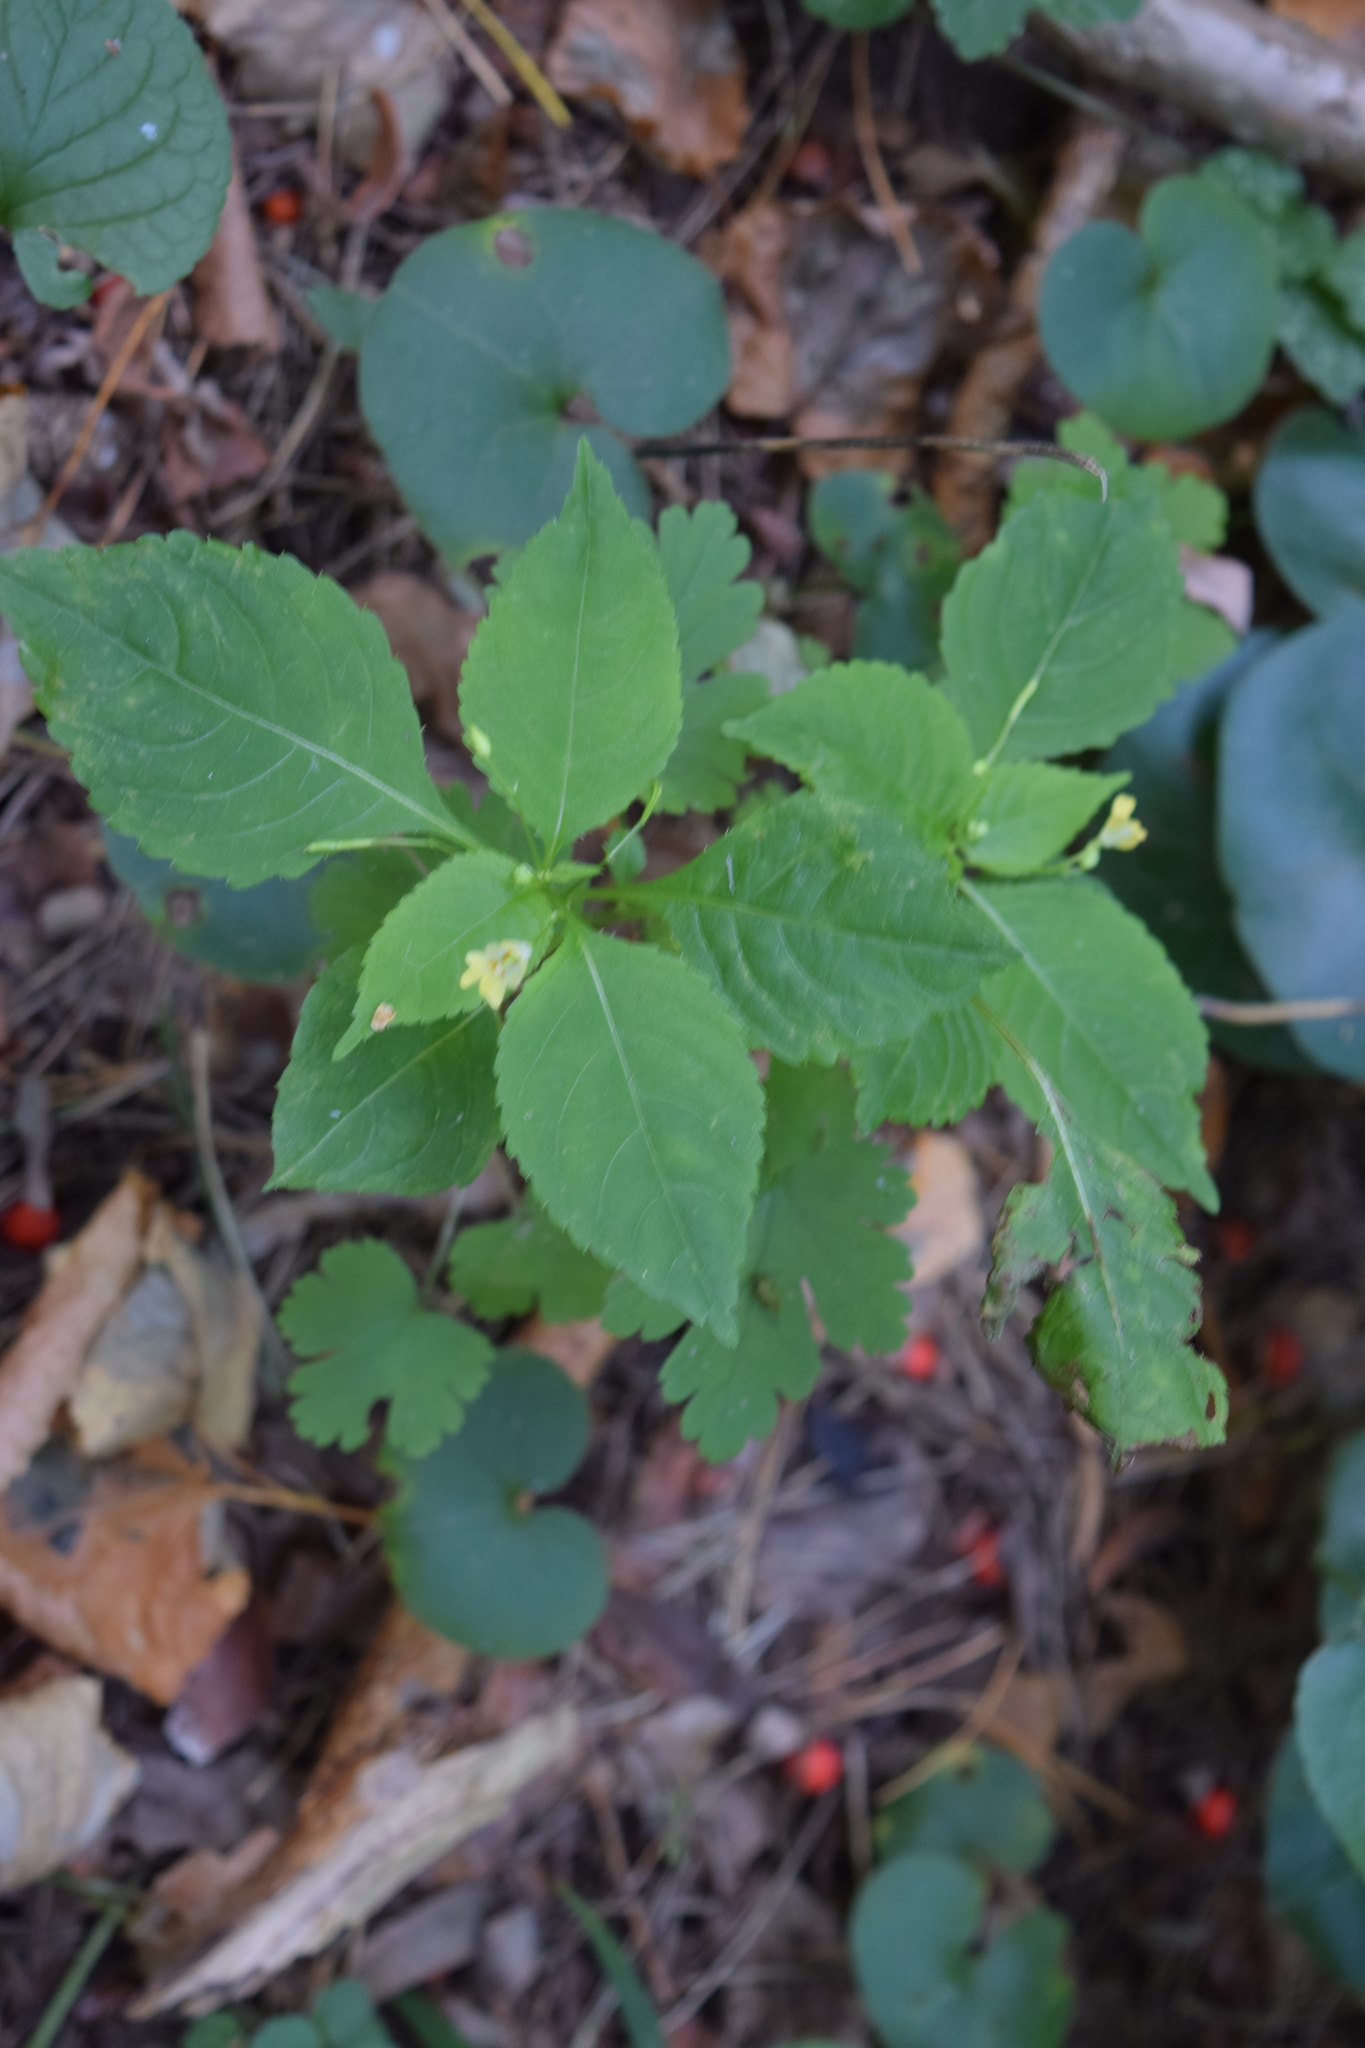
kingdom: Plantae
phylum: Tracheophyta
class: Magnoliopsida
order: Ericales
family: Balsaminaceae
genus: Impatiens
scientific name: Impatiens parviflora
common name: Small balsam
